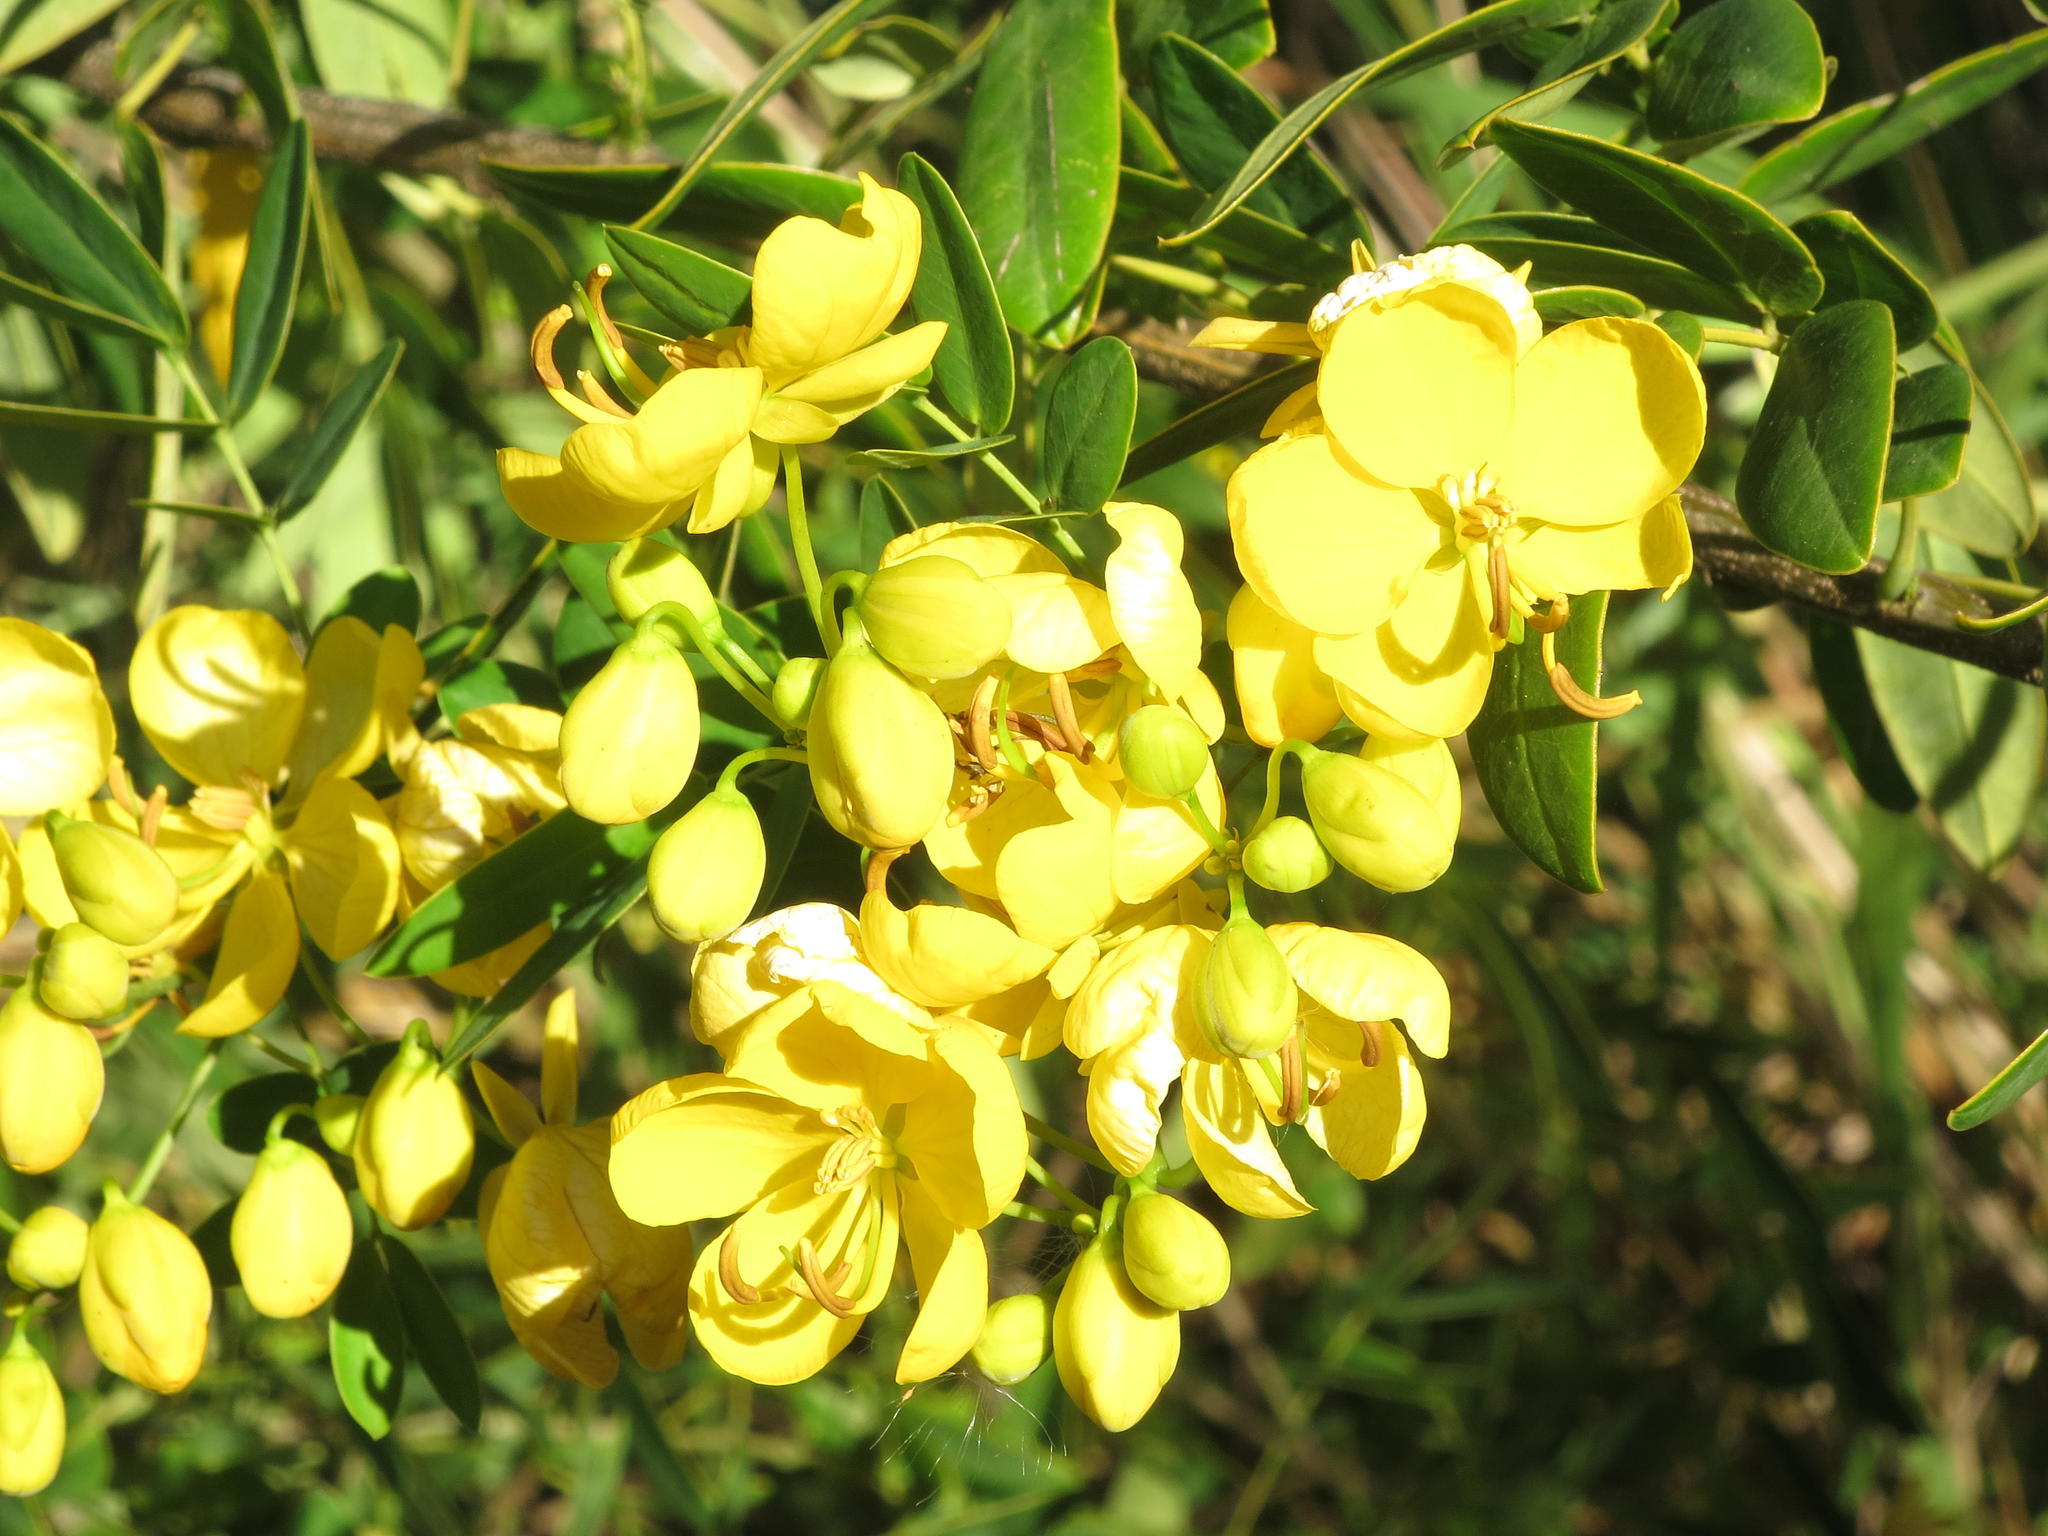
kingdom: Plantae
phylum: Tracheophyta
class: Magnoliopsida
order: Fabales
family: Fabaceae
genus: Senna
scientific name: Senna septemtrionalis
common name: Arsenic bush
